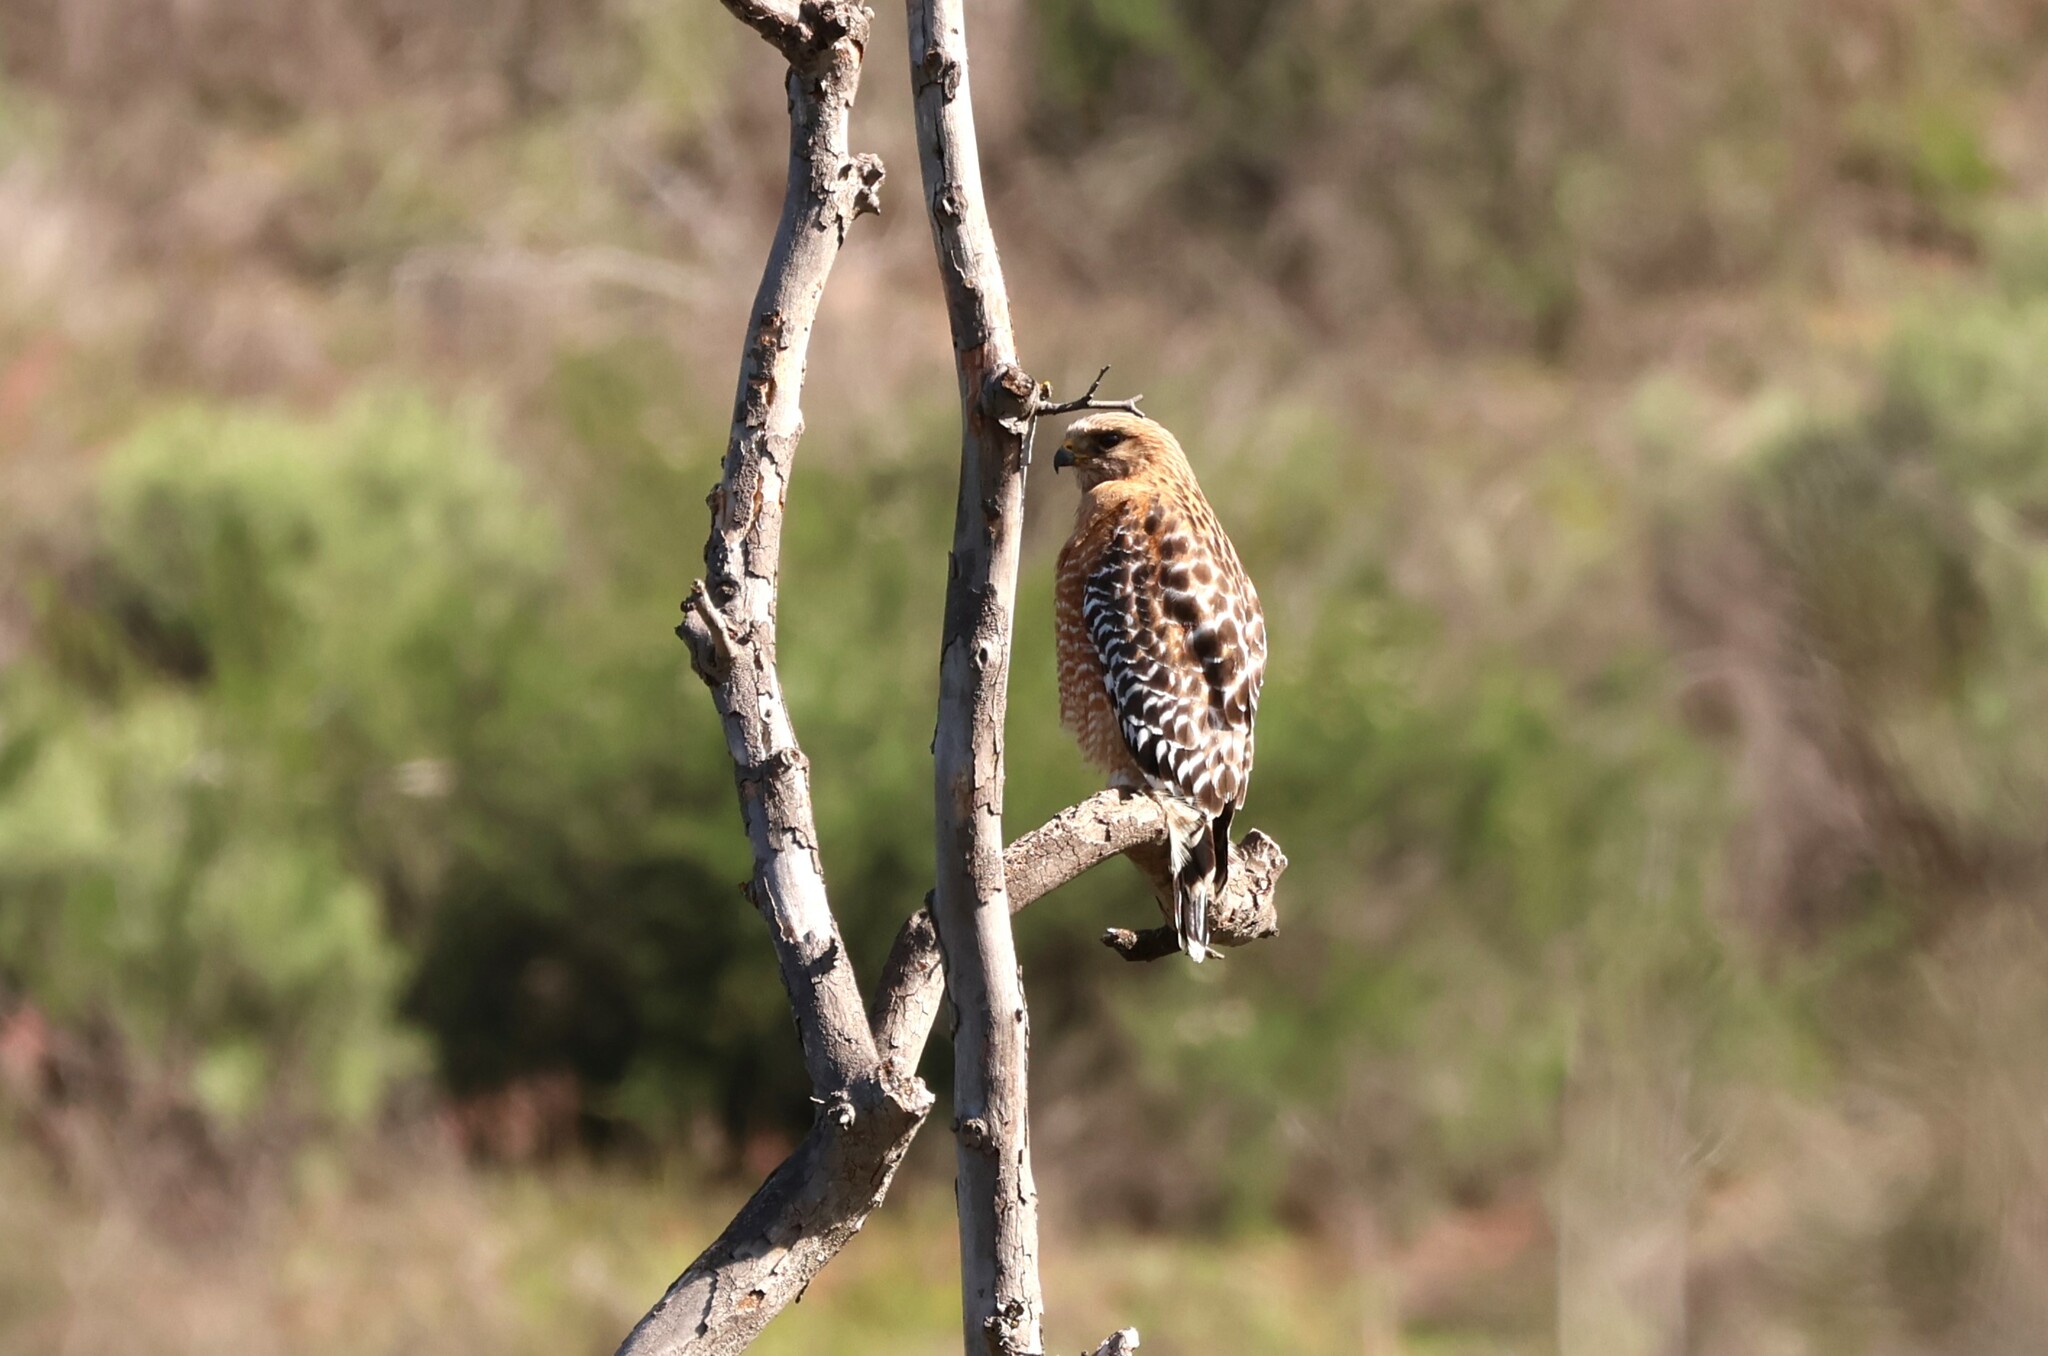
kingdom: Animalia
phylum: Chordata
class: Aves
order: Accipitriformes
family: Accipitridae
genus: Buteo
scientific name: Buteo lineatus
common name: Red-shouldered hawk
